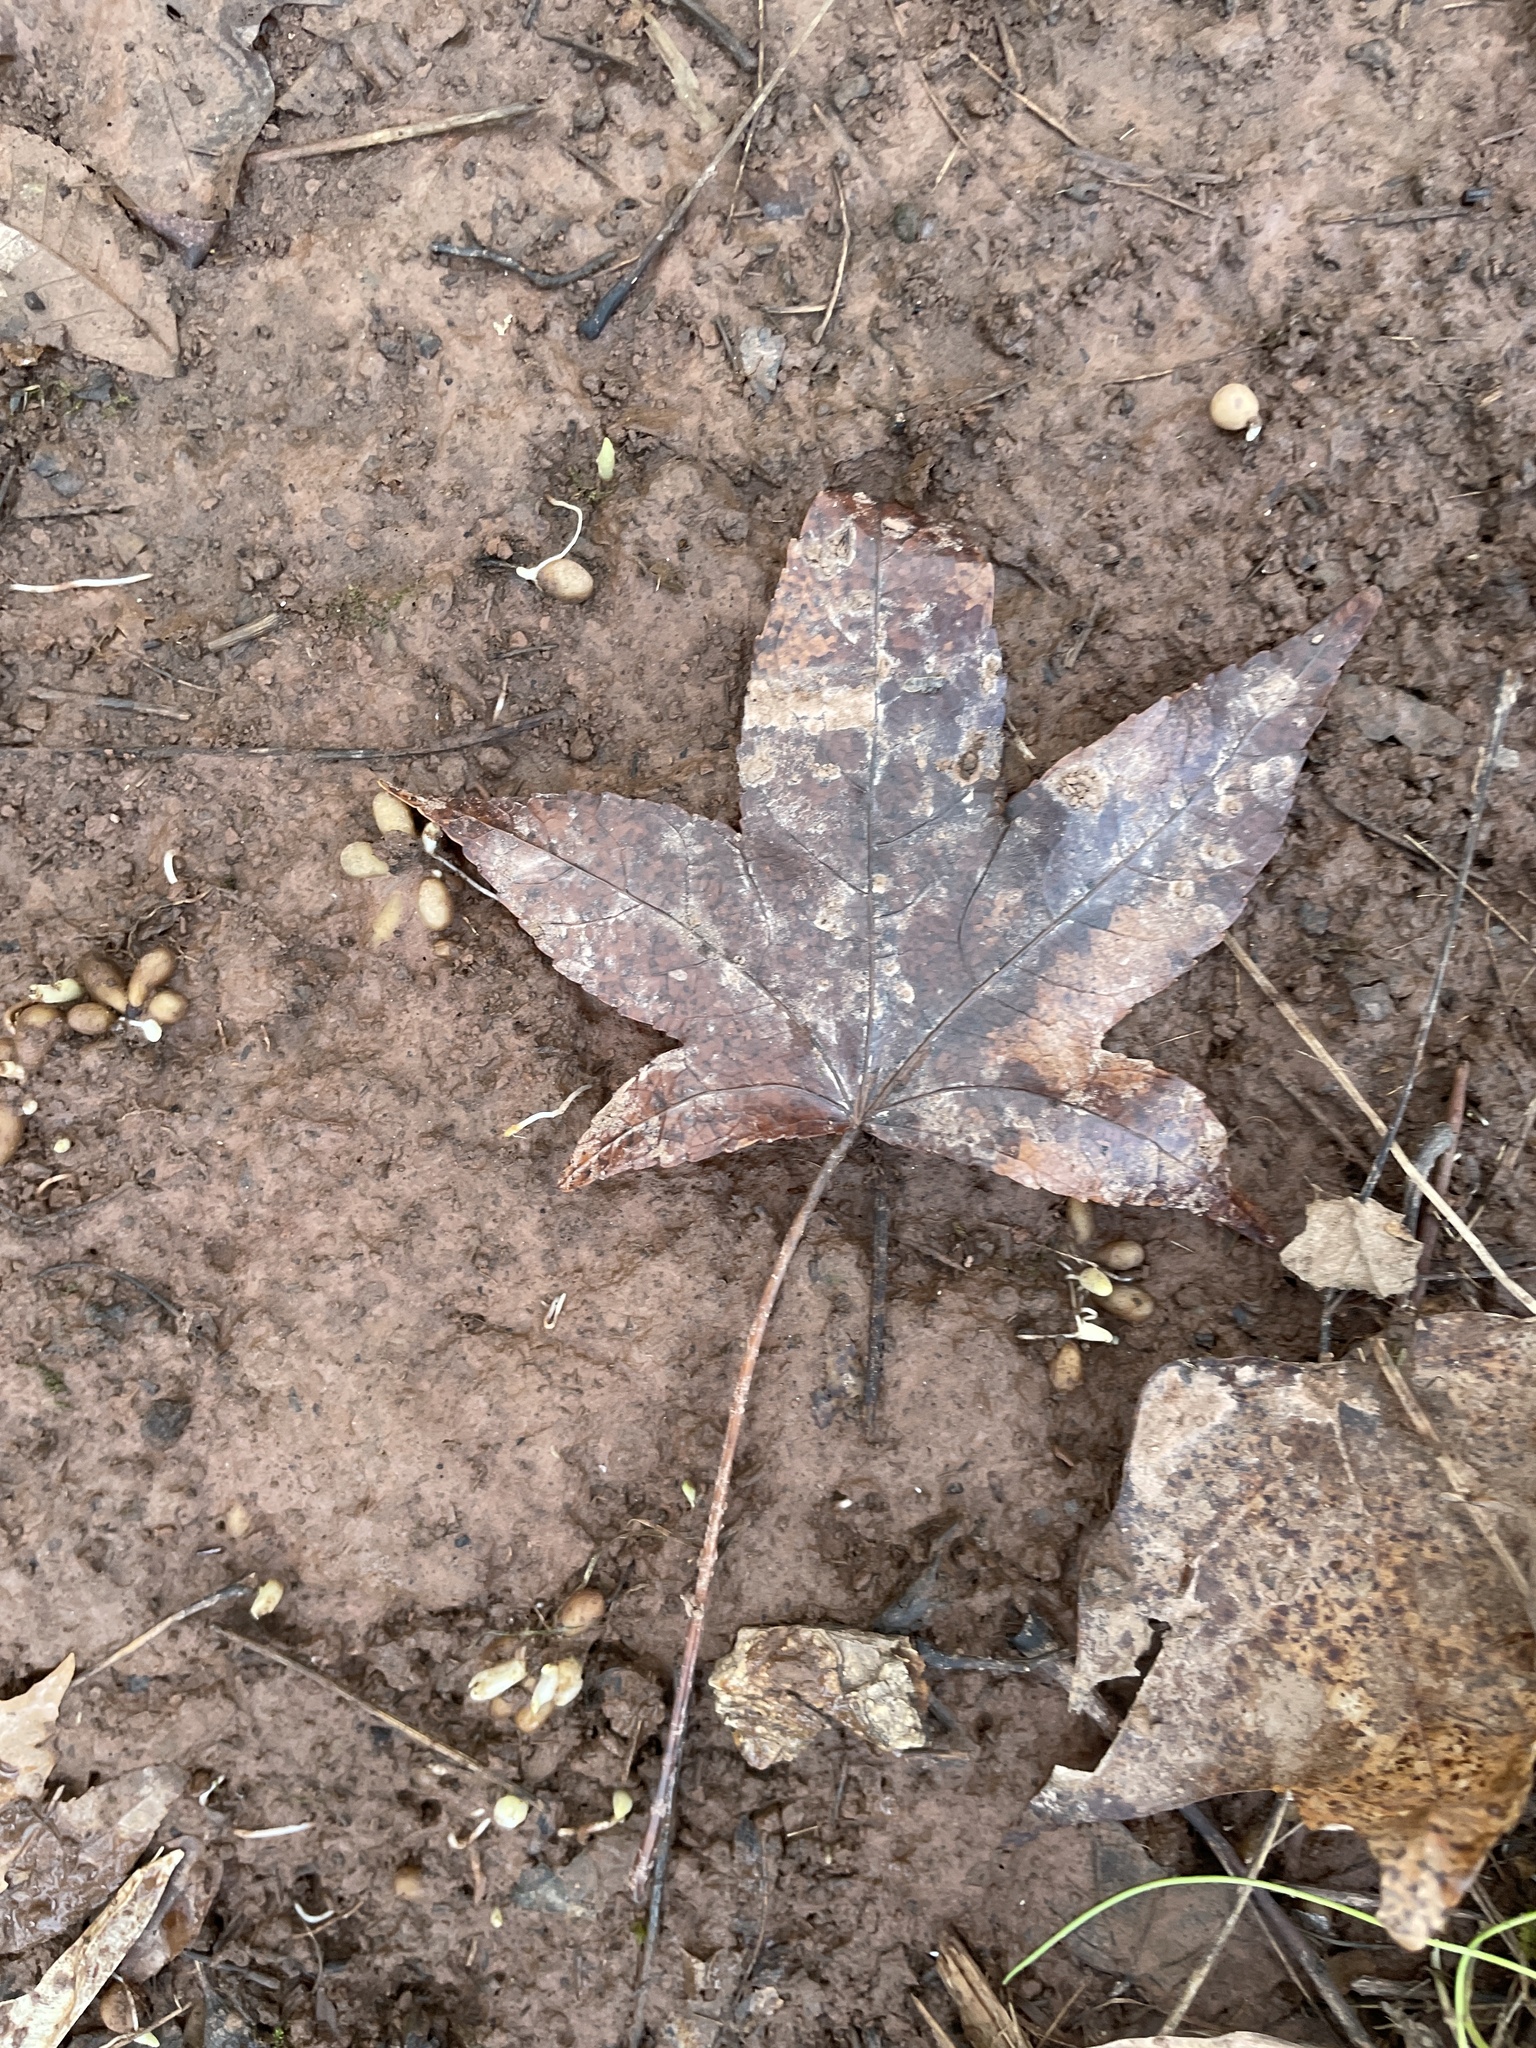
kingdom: Plantae
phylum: Tracheophyta
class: Magnoliopsida
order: Saxifragales
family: Altingiaceae
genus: Liquidambar
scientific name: Liquidambar styraciflua
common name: Sweet gum
